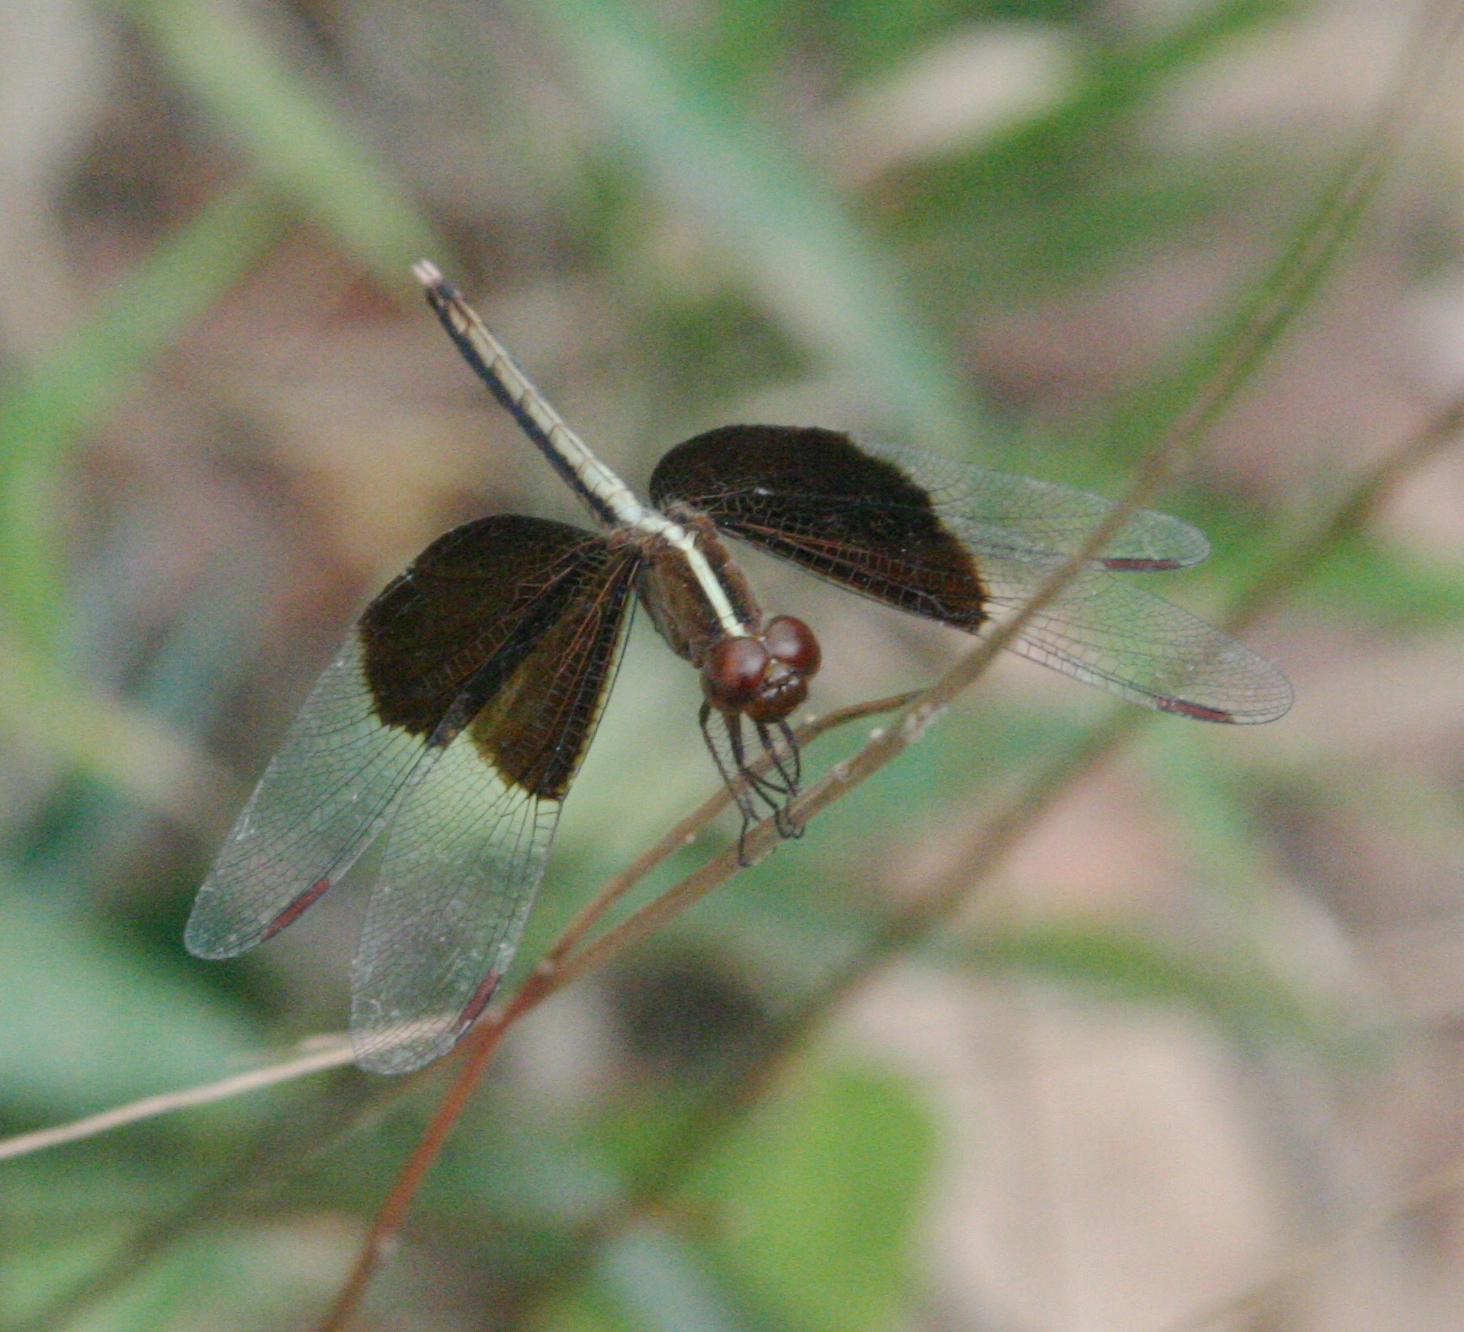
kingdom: Animalia
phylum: Arthropoda
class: Insecta
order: Odonata
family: Libellulidae
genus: Neurothemis
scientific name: Neurothemis tullia
